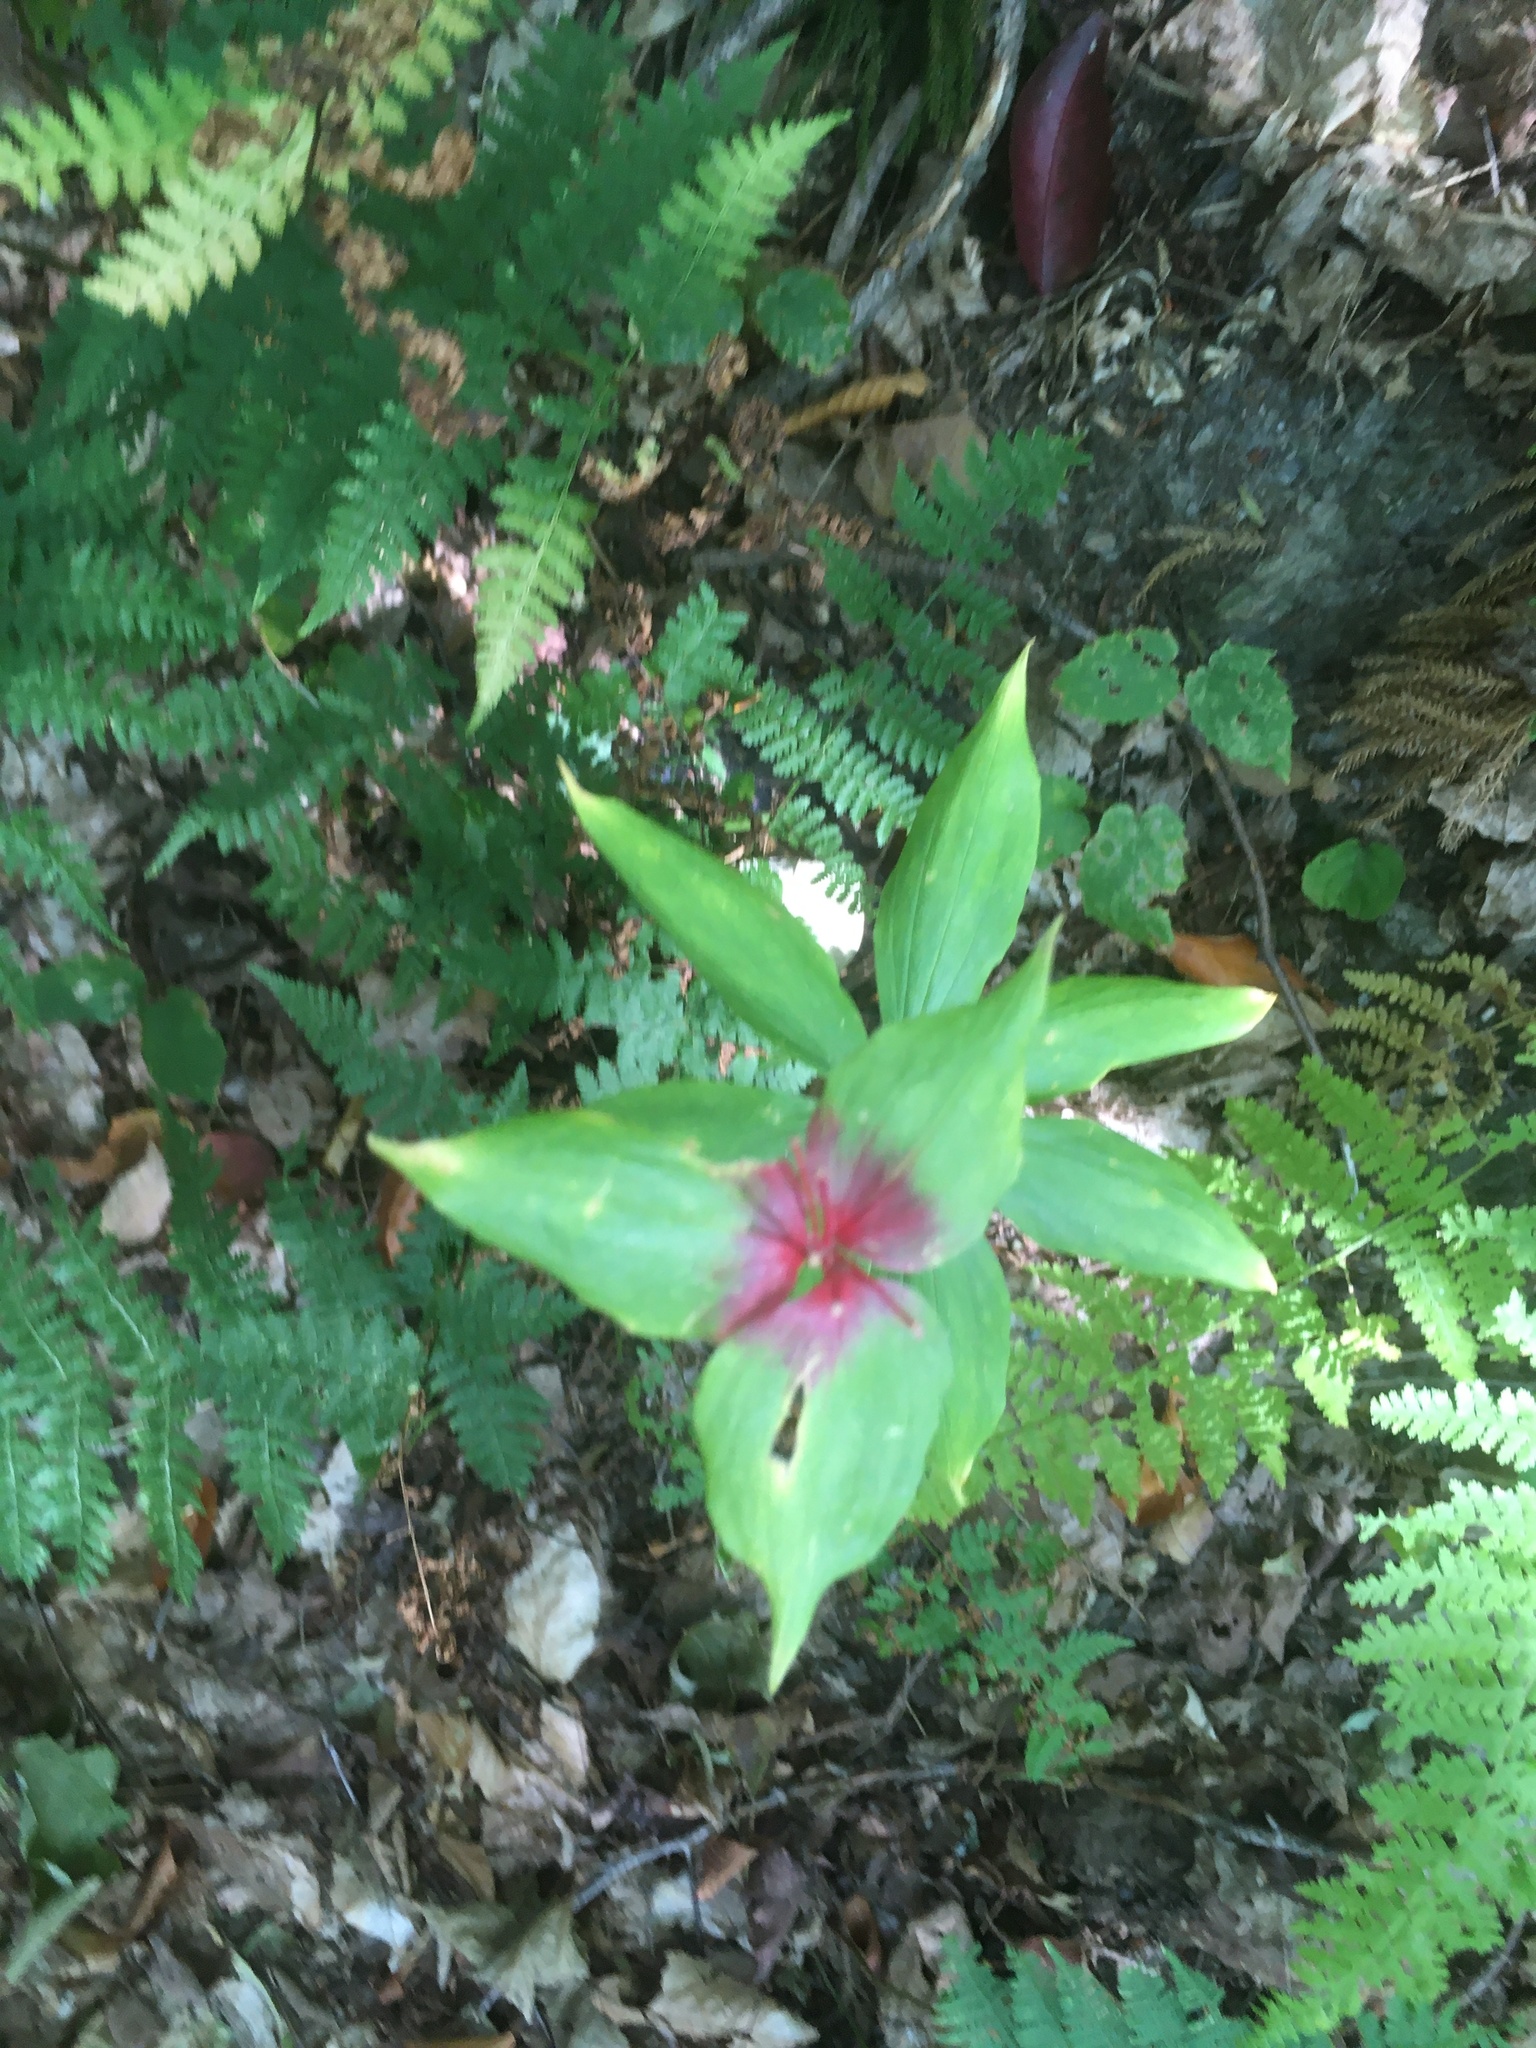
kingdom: Plantae
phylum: Tracheophyta
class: Liliopsida
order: Liliales
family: Liliaceae
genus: Medeola
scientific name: Medeola virginiana
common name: Indian cucumber-root
